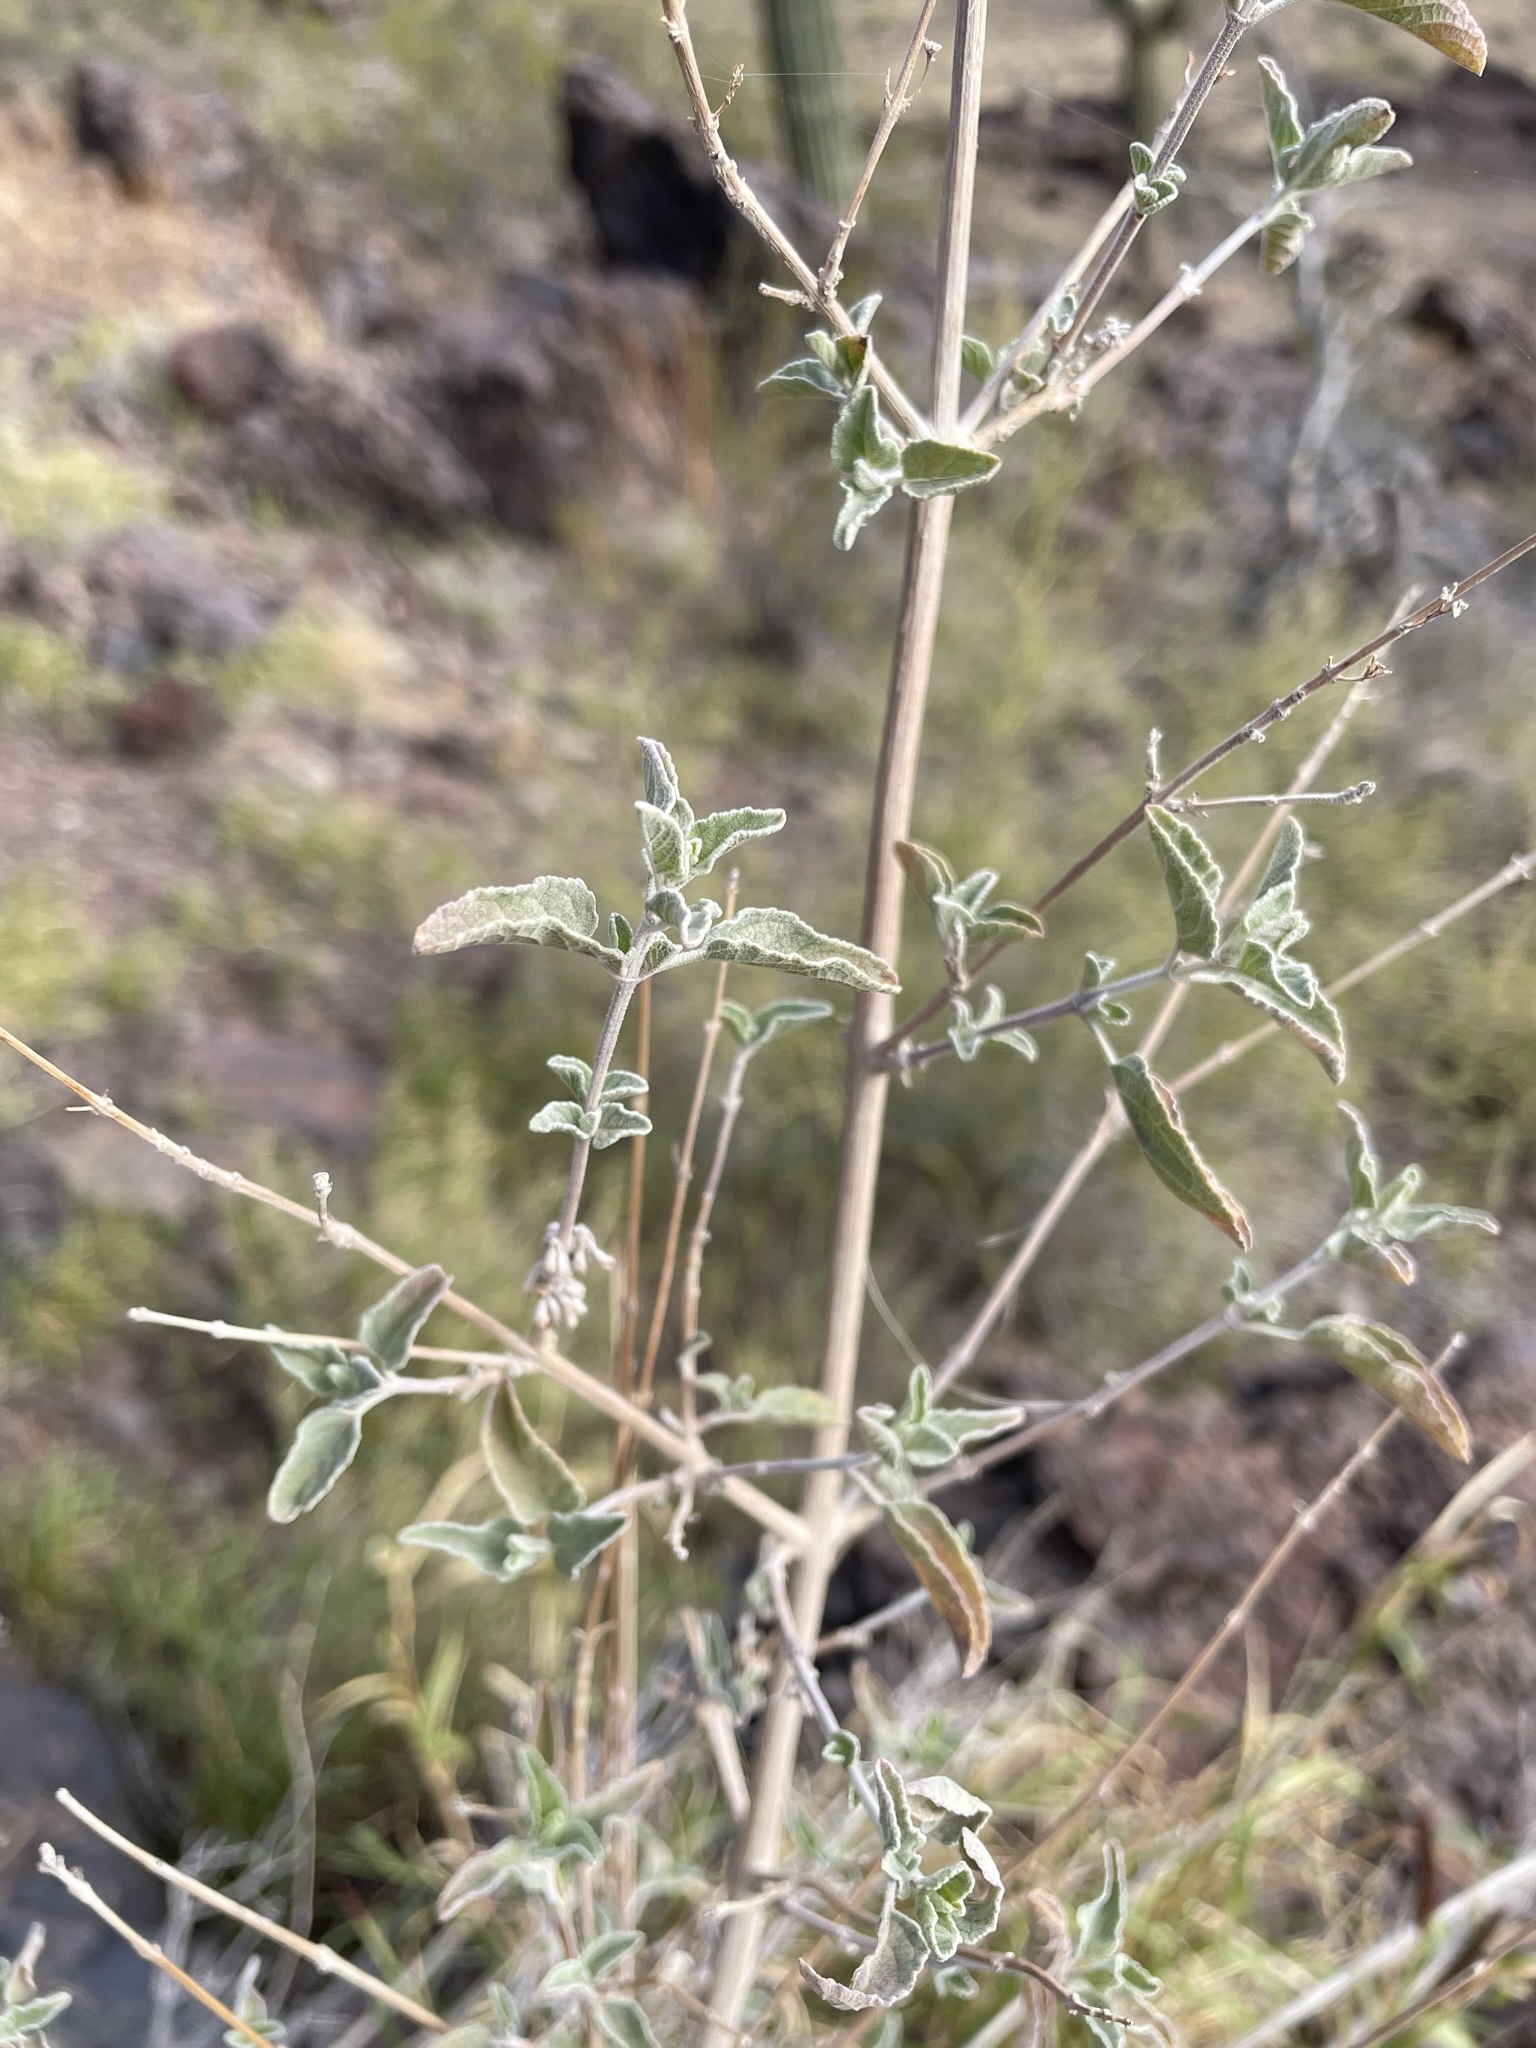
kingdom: Plantae
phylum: Tracheophyta
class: Magnoliopsida
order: Lamiales
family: Lamiaceae
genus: Condea
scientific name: Condea emoryi
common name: Chia
